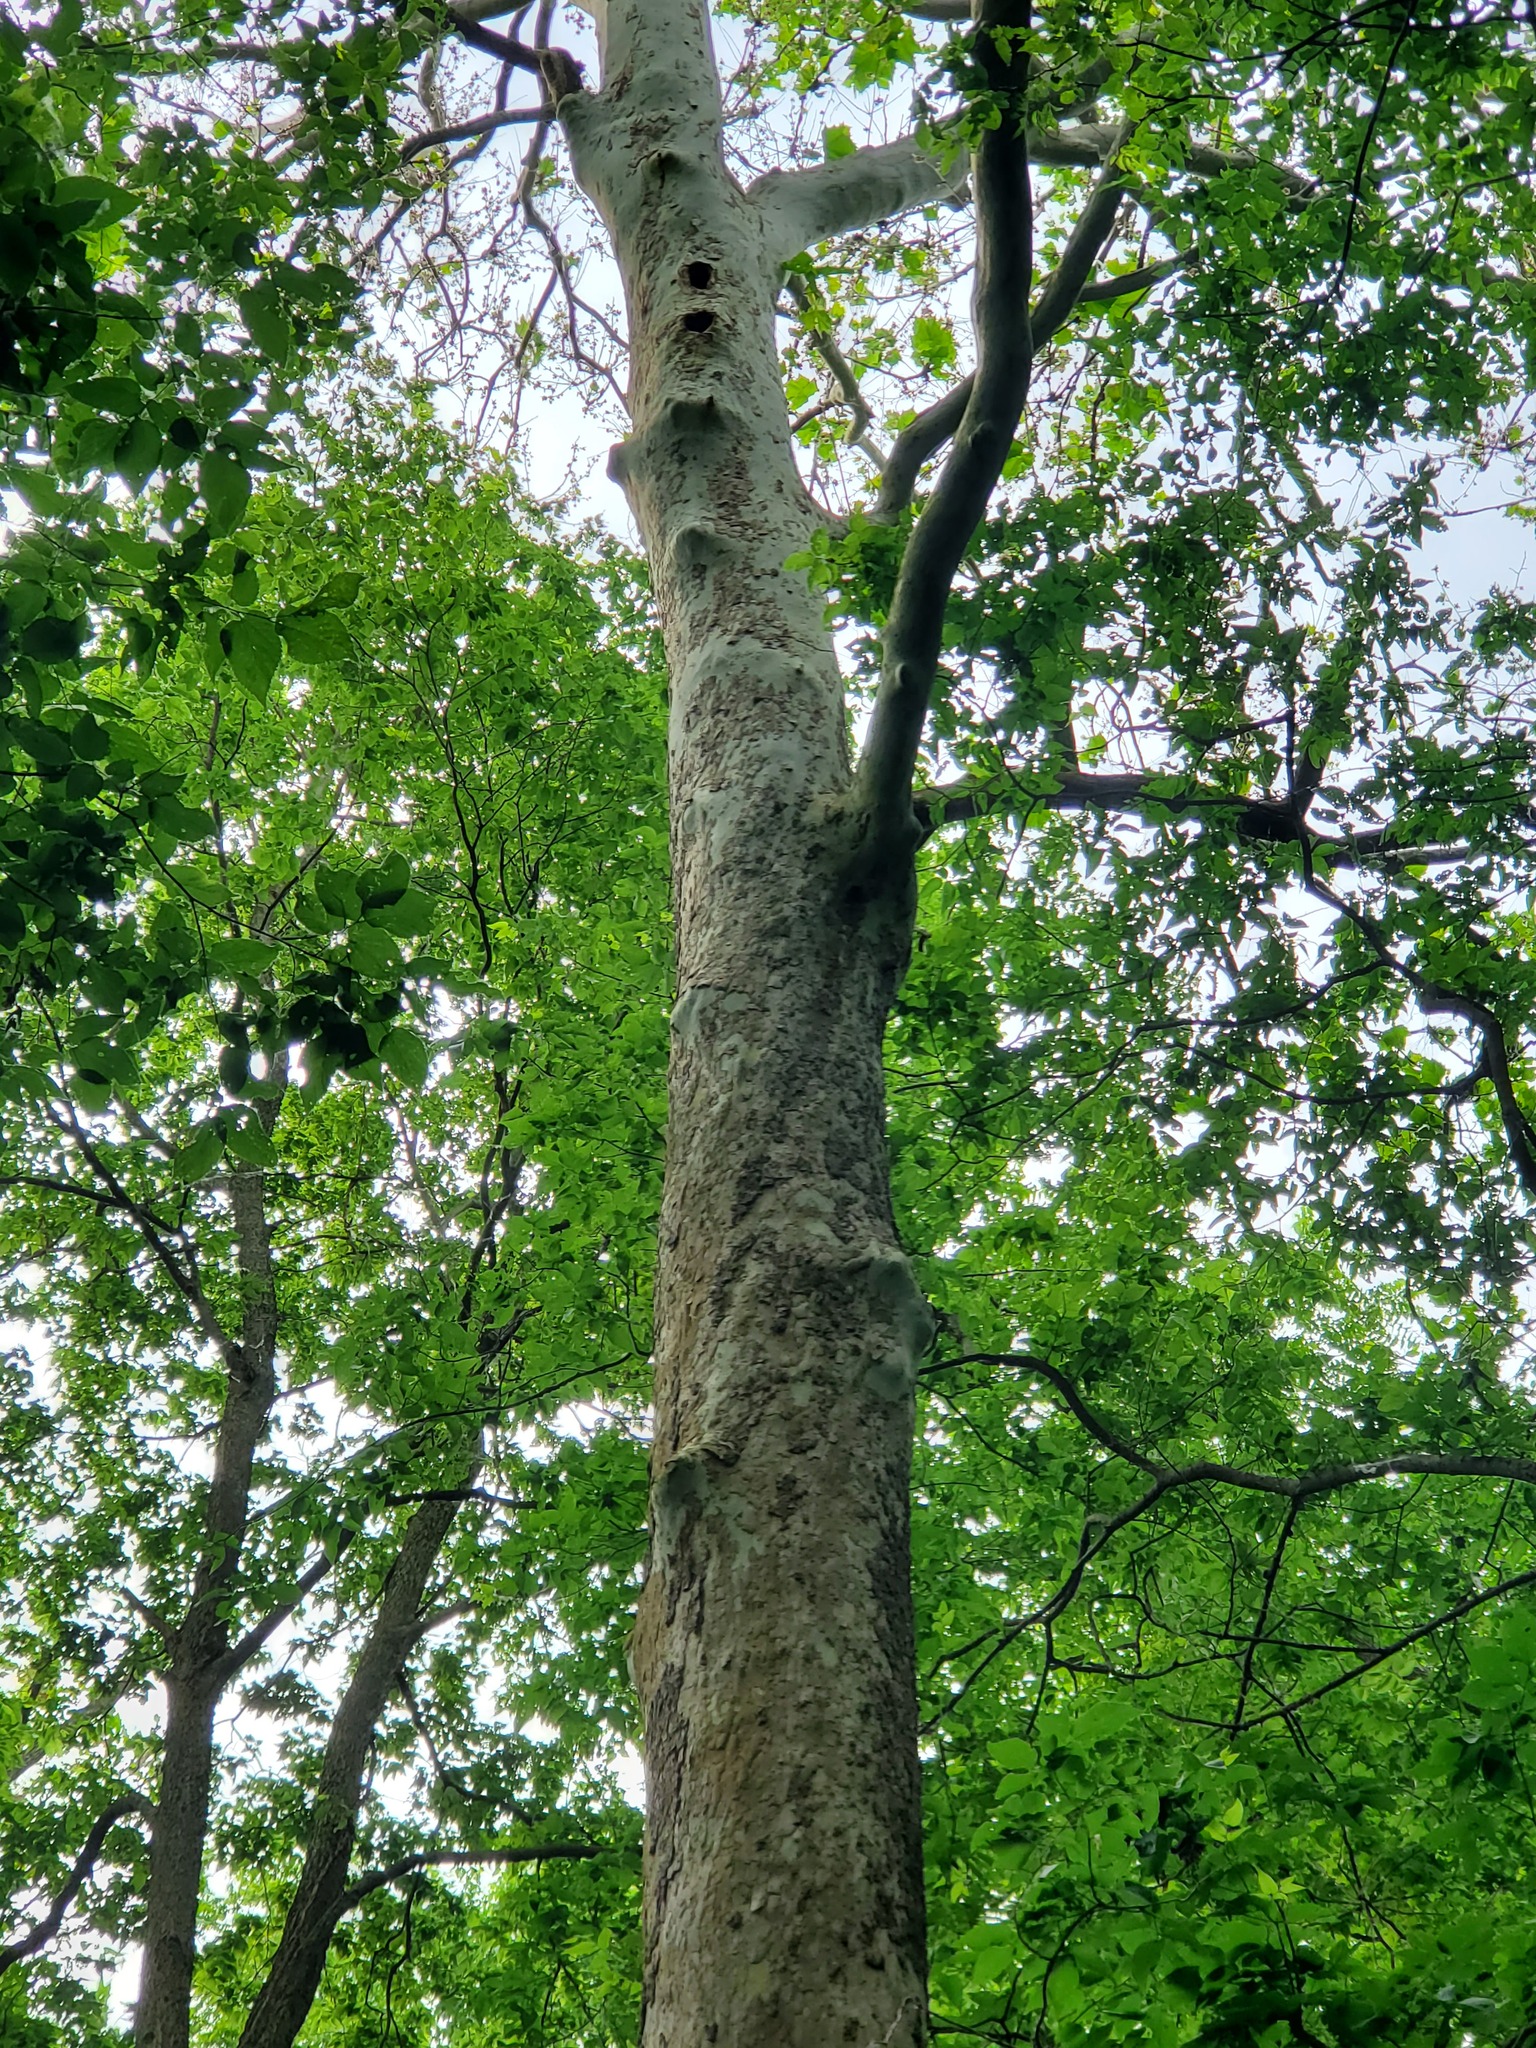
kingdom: Plantae
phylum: Tracheophyta
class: Magnoliopsida
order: Proteales
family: Platanaceae
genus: Platanus
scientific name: Platanus occidentalis
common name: American sycamore
